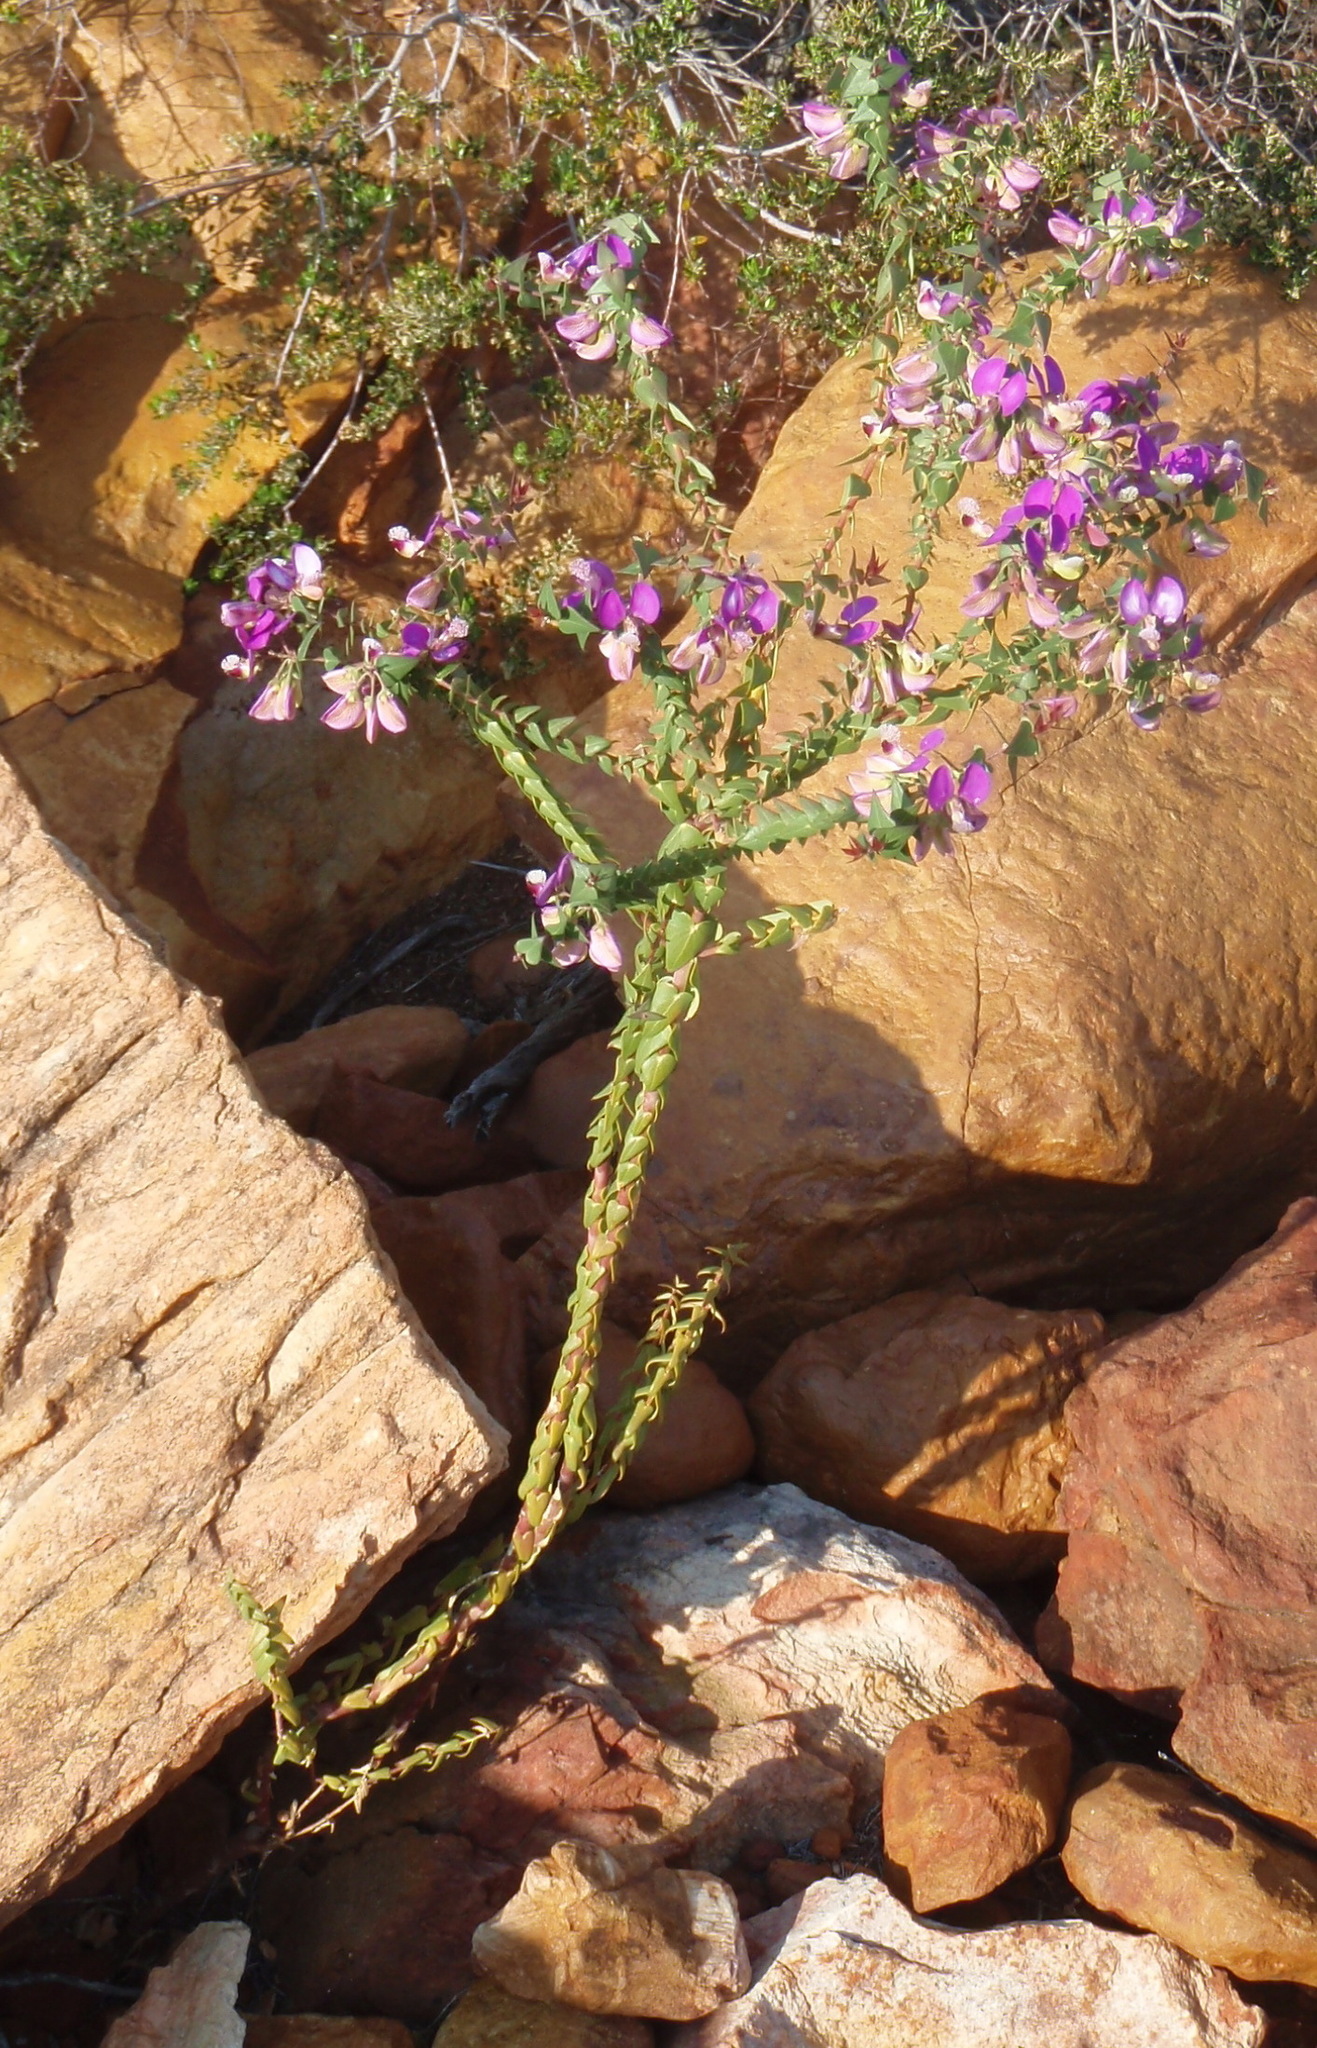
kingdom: Plantae
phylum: Tracheophyta
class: Magnoliopsida
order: Fabales
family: Polygalaceae
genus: Polygala
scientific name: Polygala fruticosa
